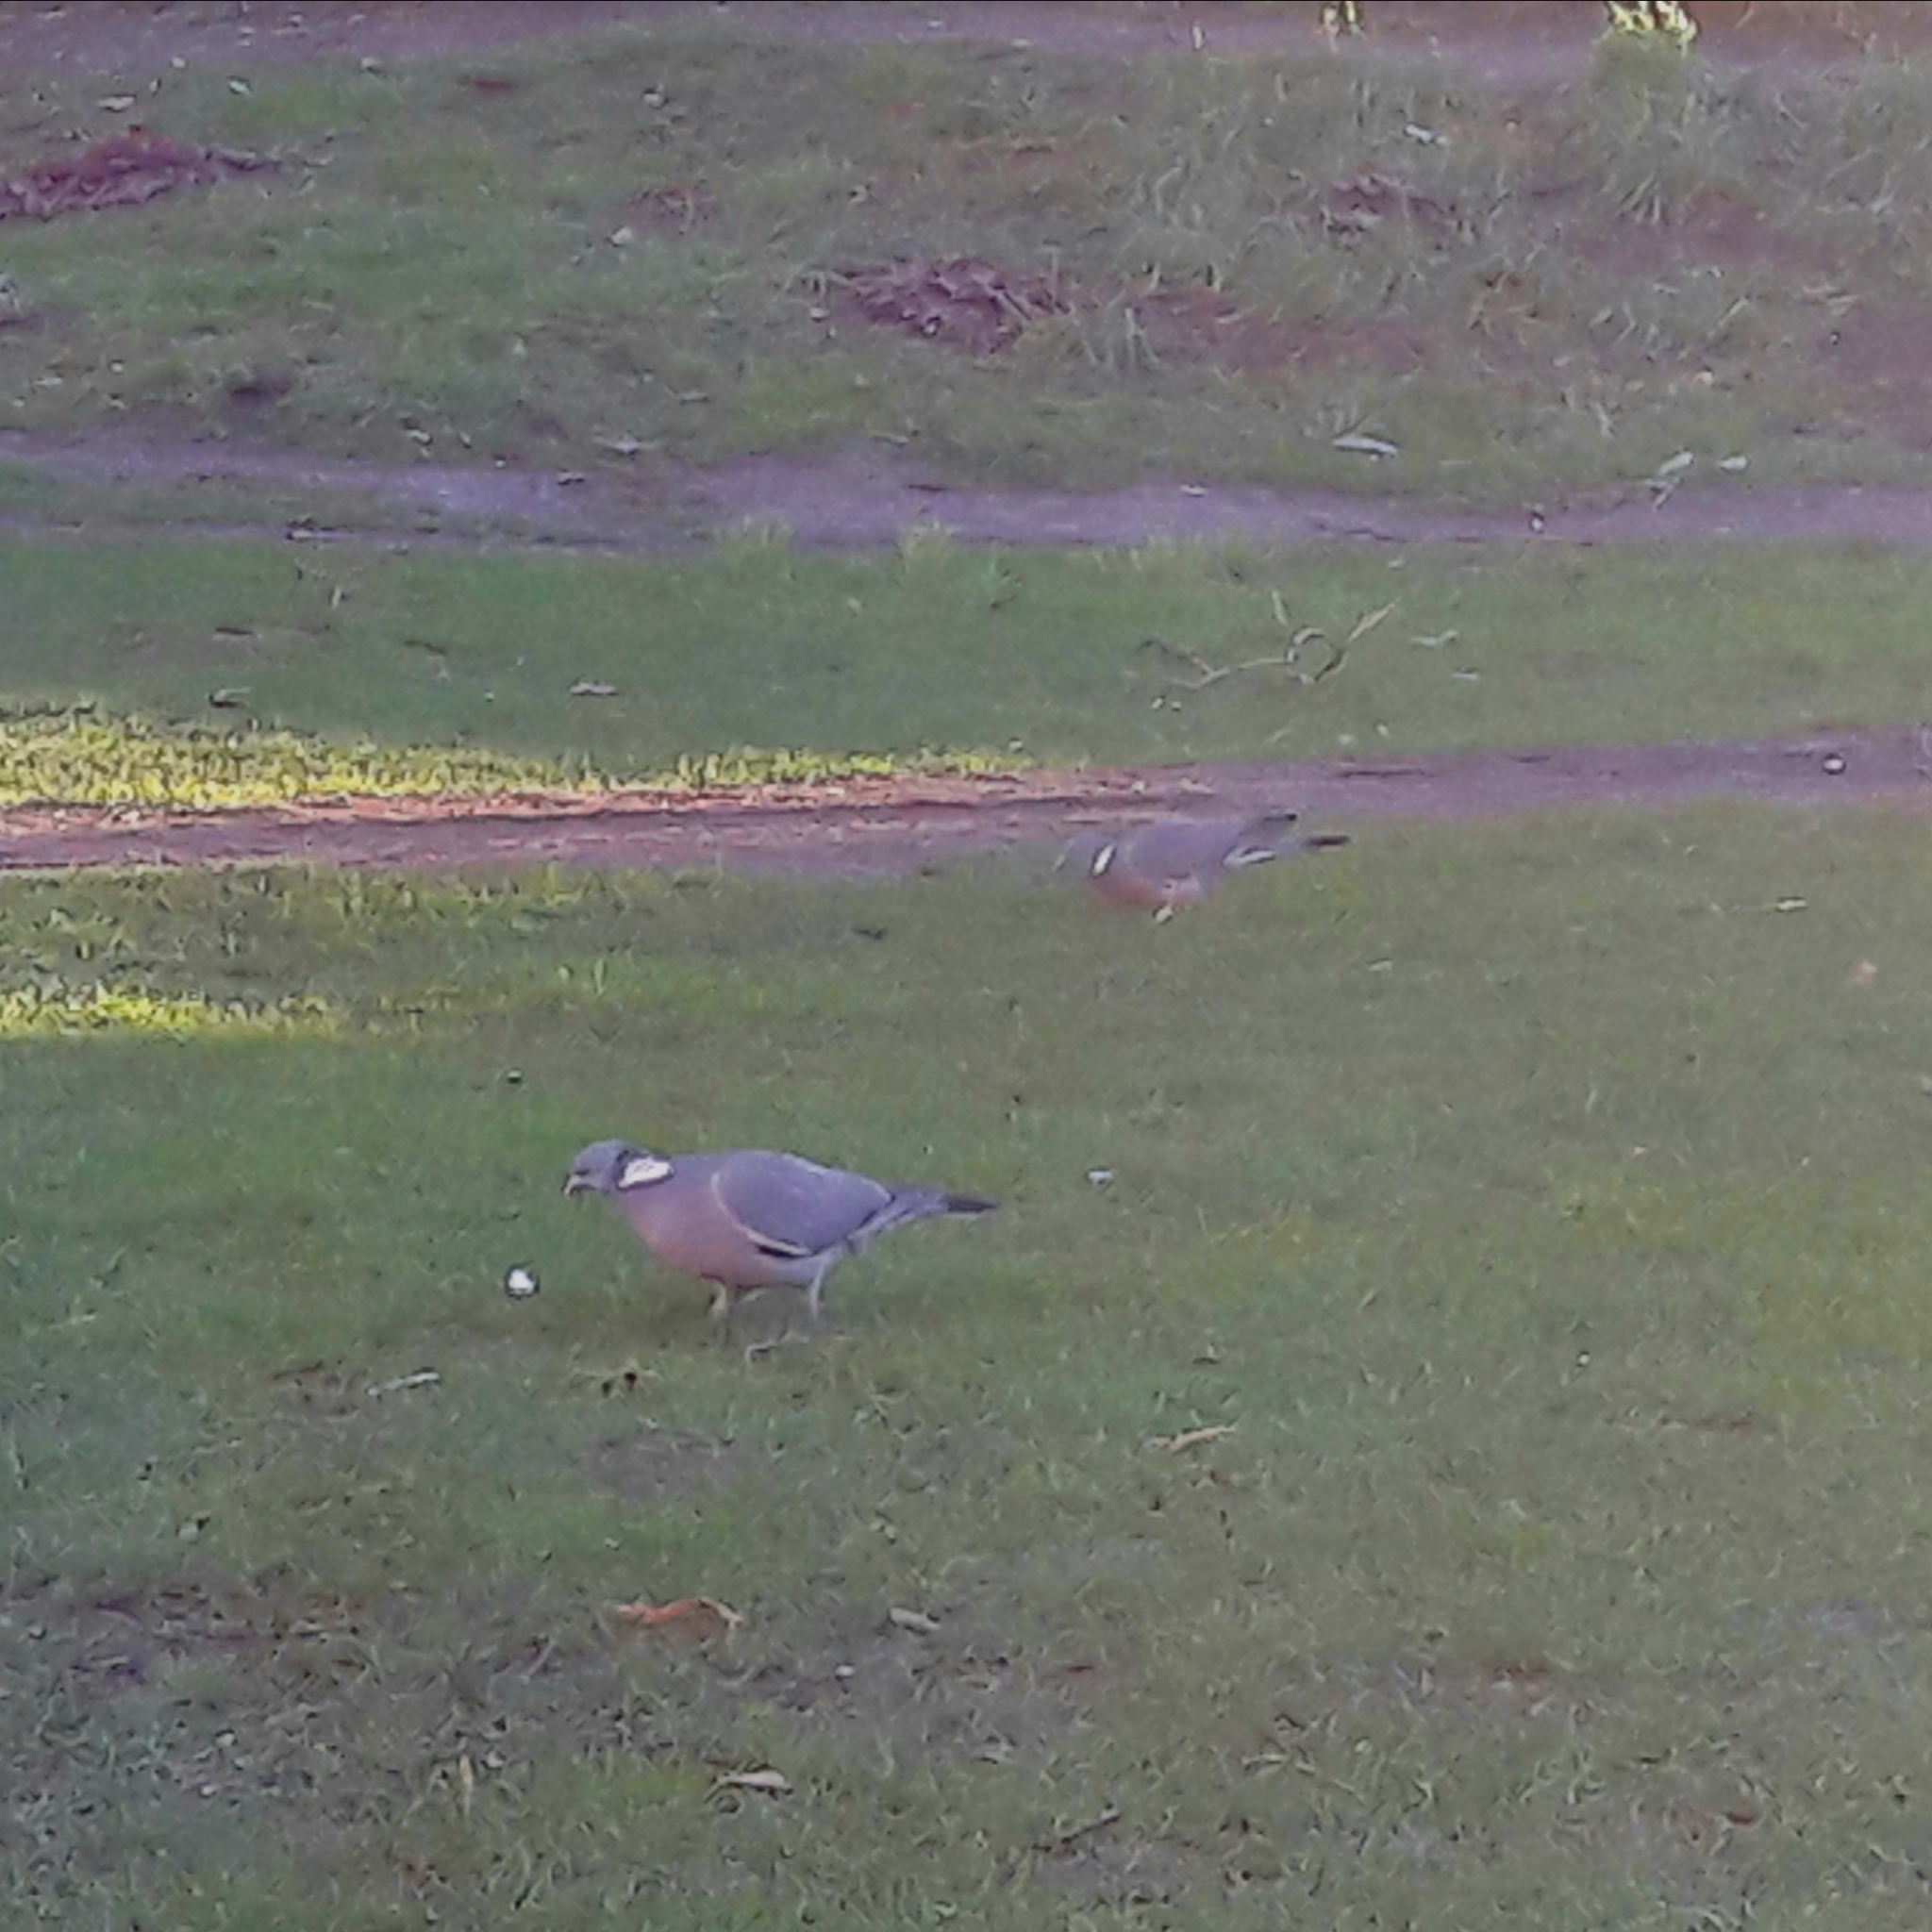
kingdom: Animalia
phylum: Chordata
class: Aves
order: Columbiformes
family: Columbidae
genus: Columba
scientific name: Columba palumbus
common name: Common wood pigeon
